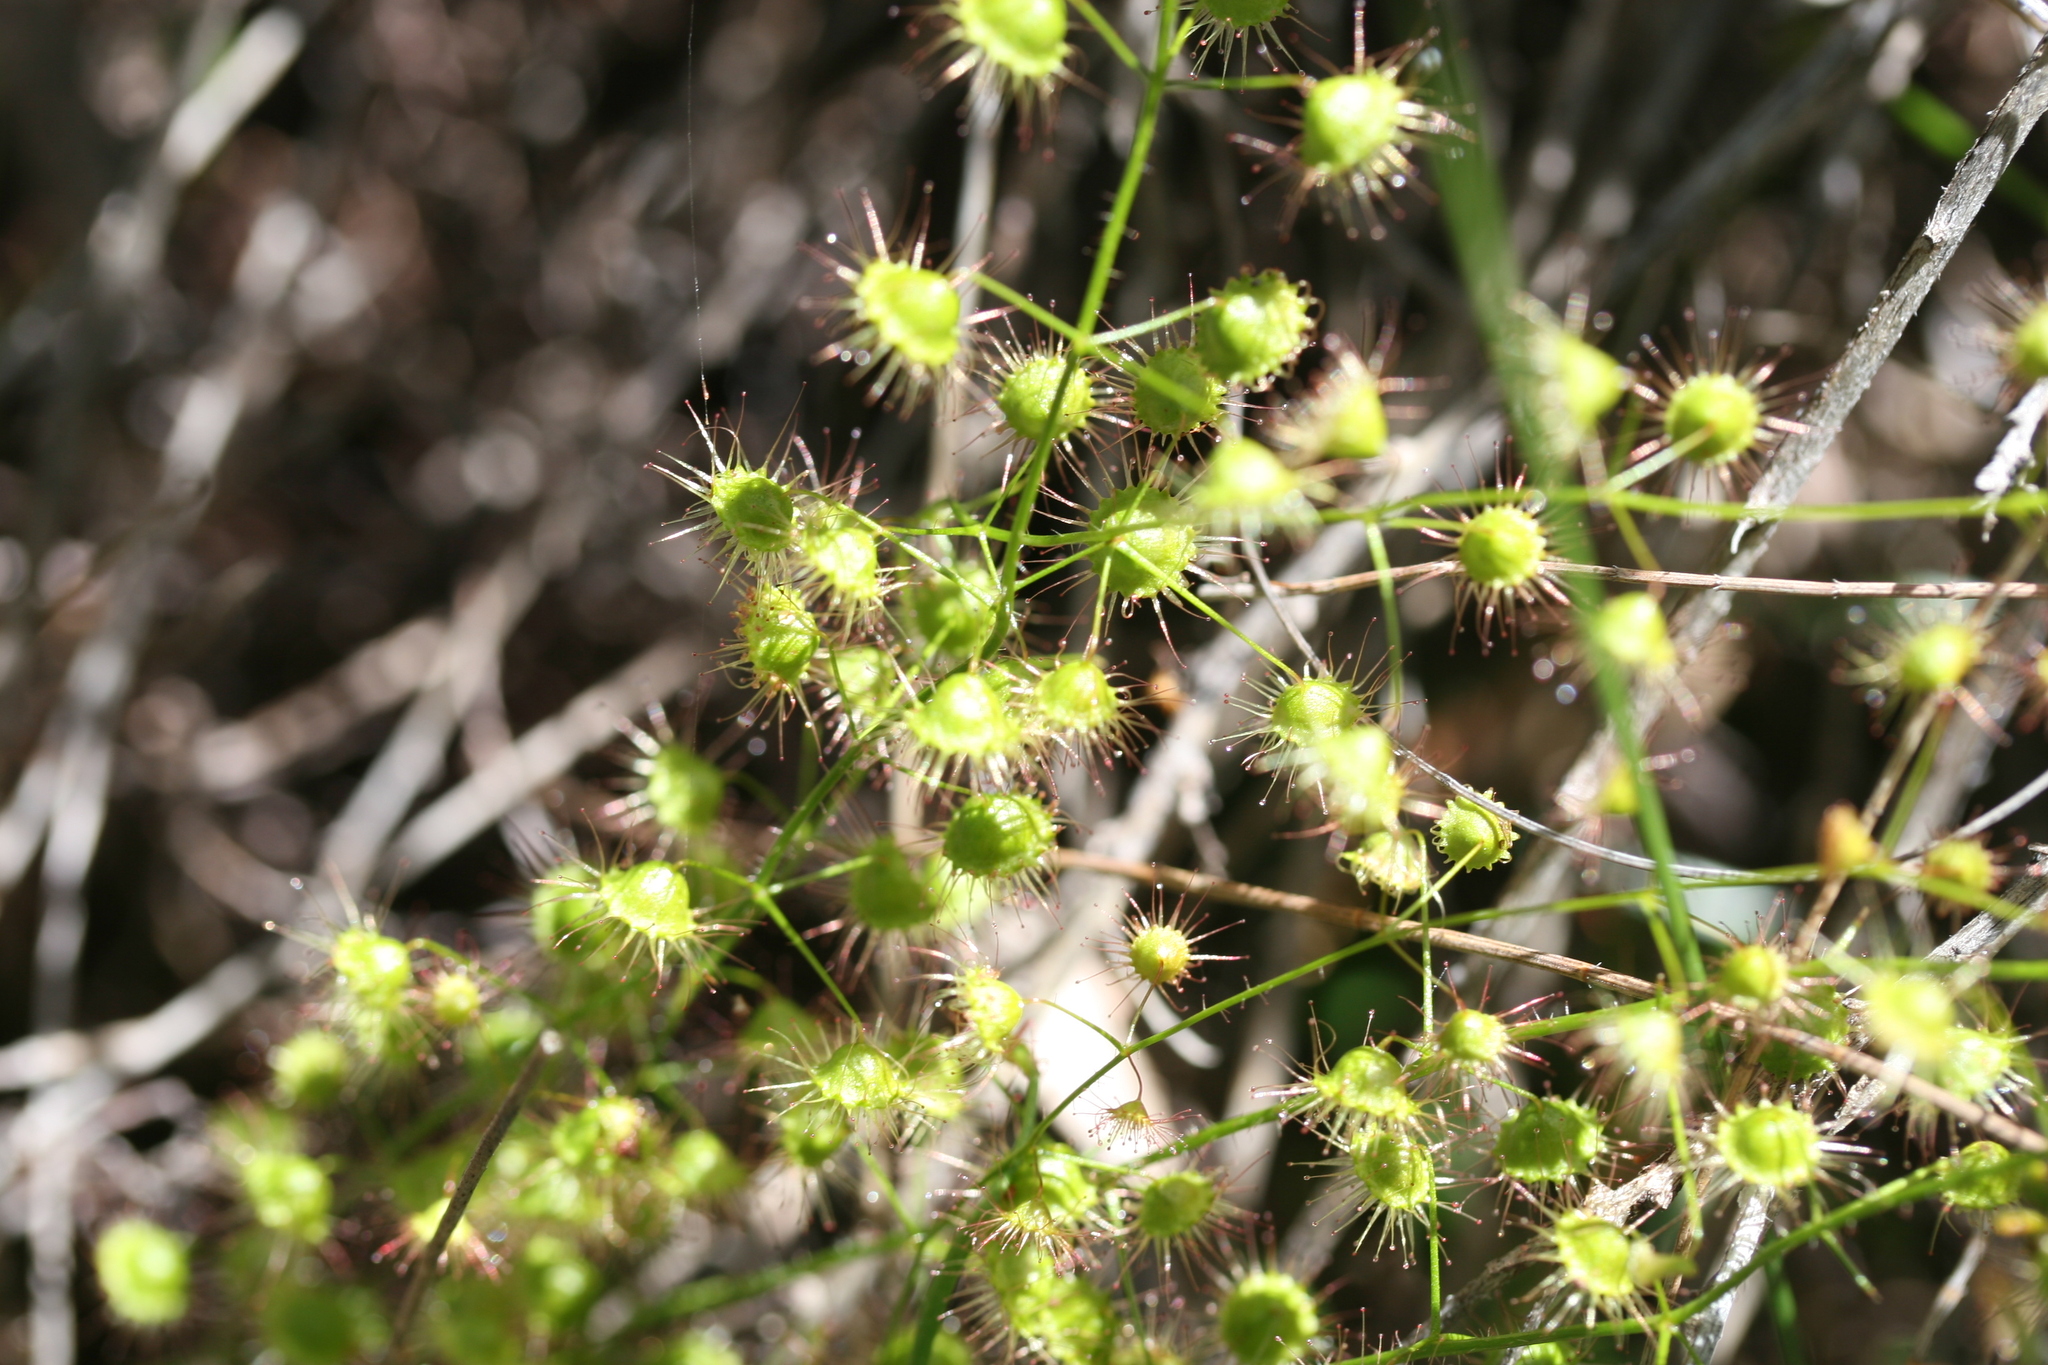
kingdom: Plantae
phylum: Tracheophyta
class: Magnoliopsida
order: Caryophyllales
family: Droseraceae
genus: Drosera
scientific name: Drosera macrantha
